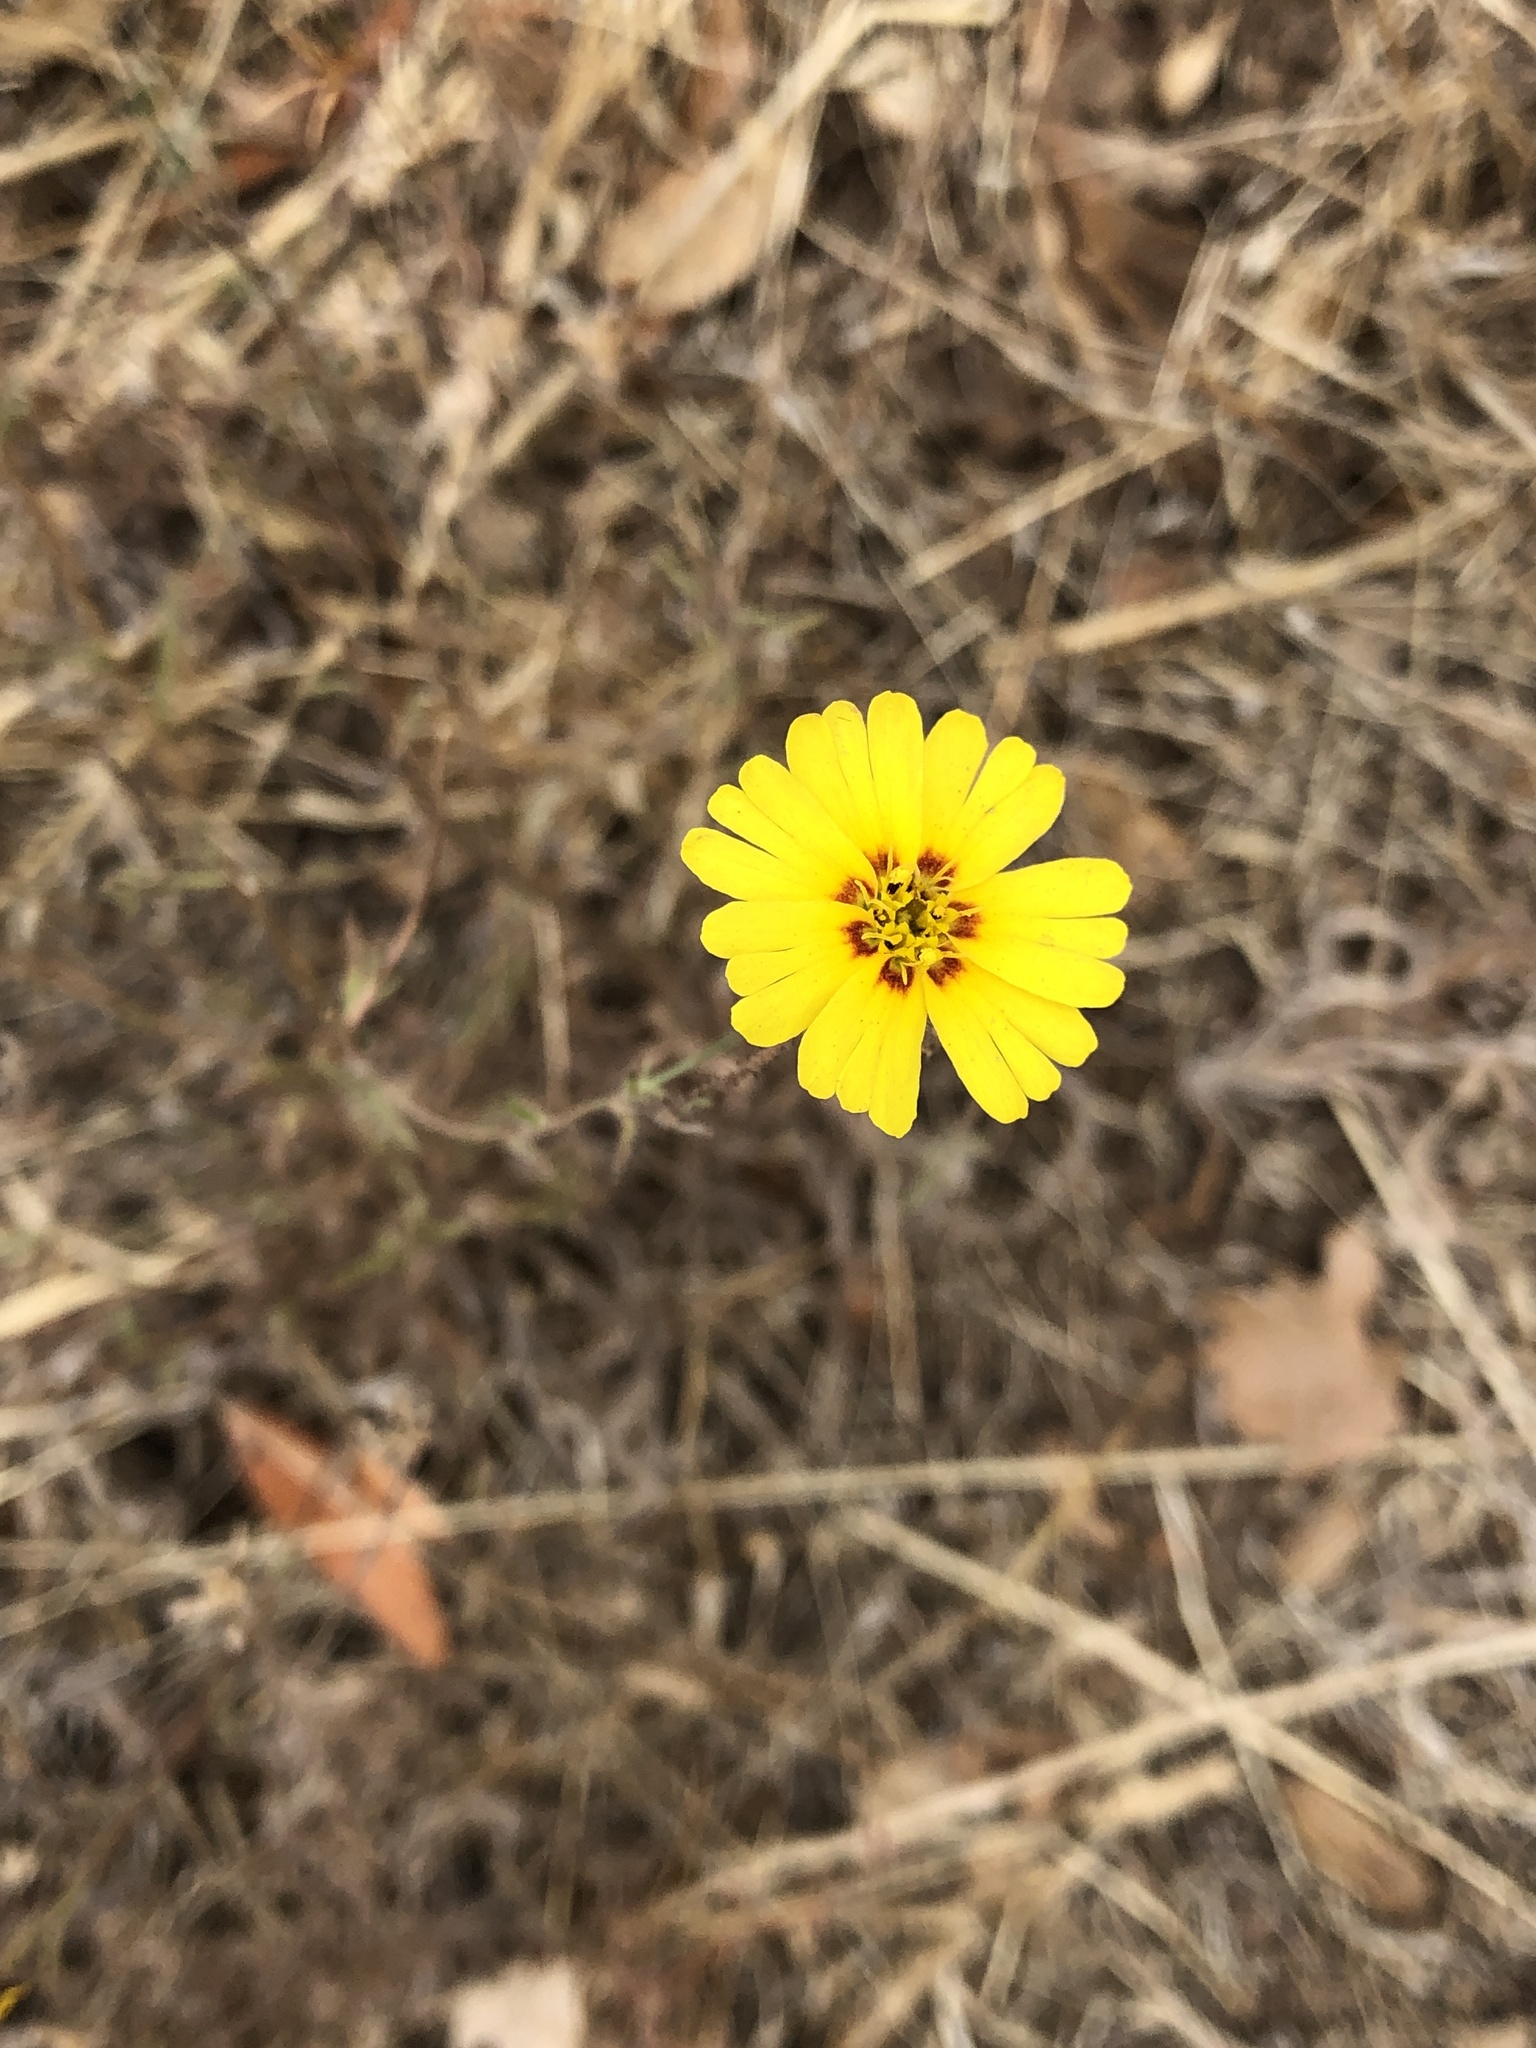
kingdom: Plantae
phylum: Tracheophyta
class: Magnoliopsida
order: Asterales
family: Asteraceae
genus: Madia
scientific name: Madia elegans
